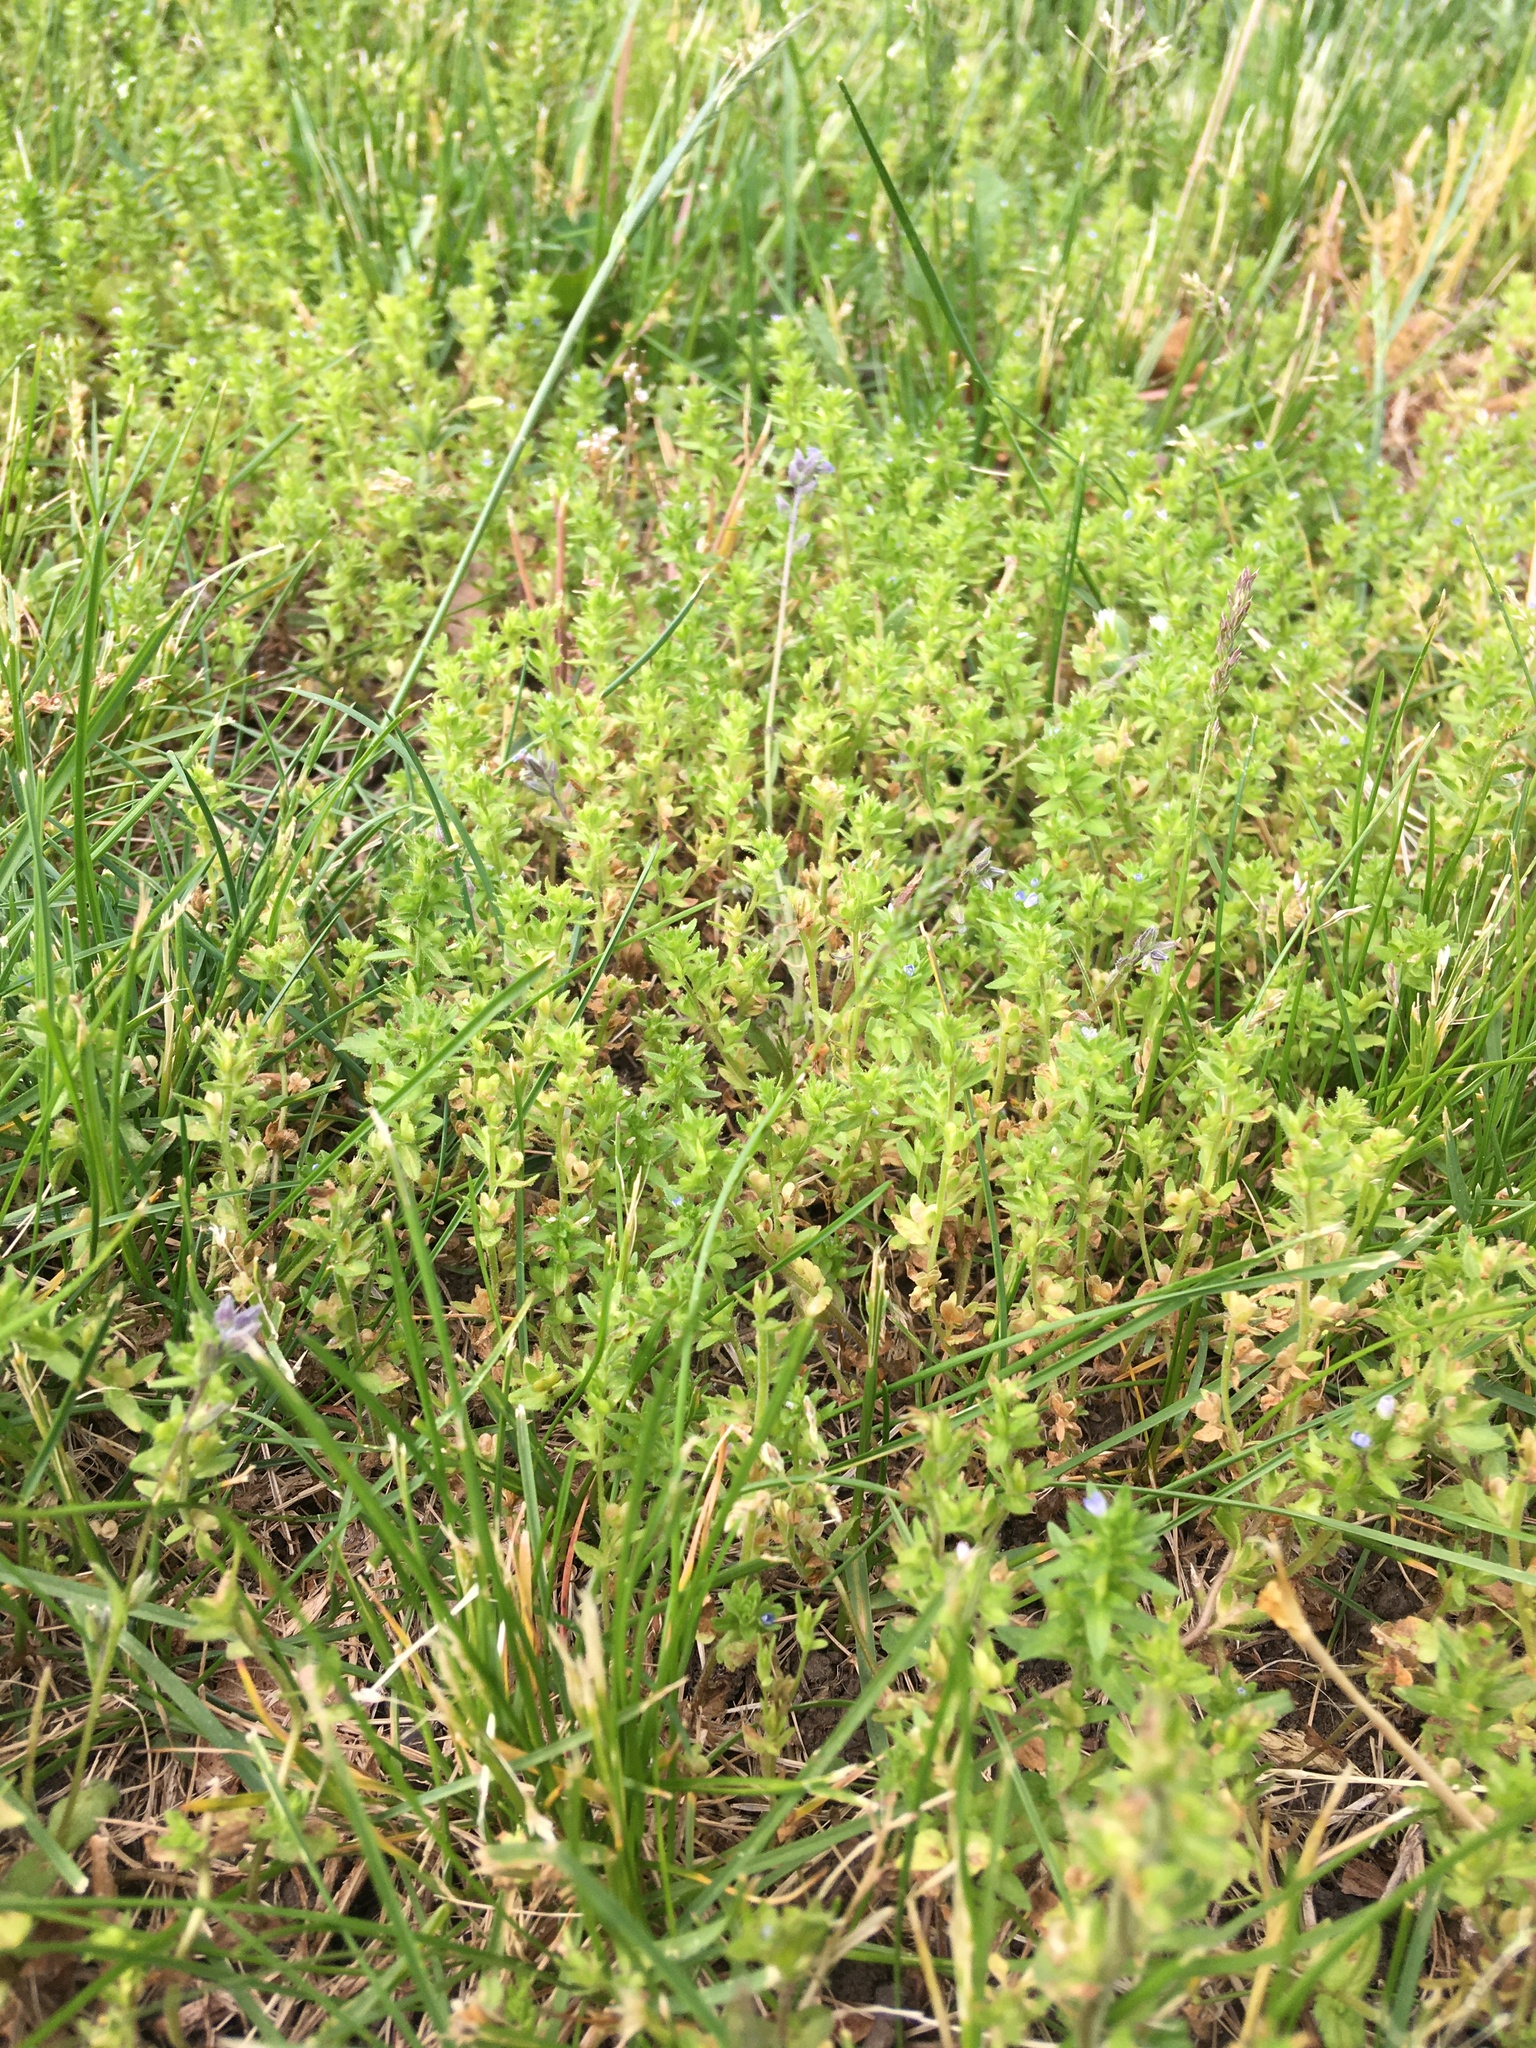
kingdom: Plantae
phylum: Tracheophyta
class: Magnoliopsida
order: Lamiales
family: Plantaginaceae
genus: Veronica
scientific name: Veronica arvensis
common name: Corn speedwell
